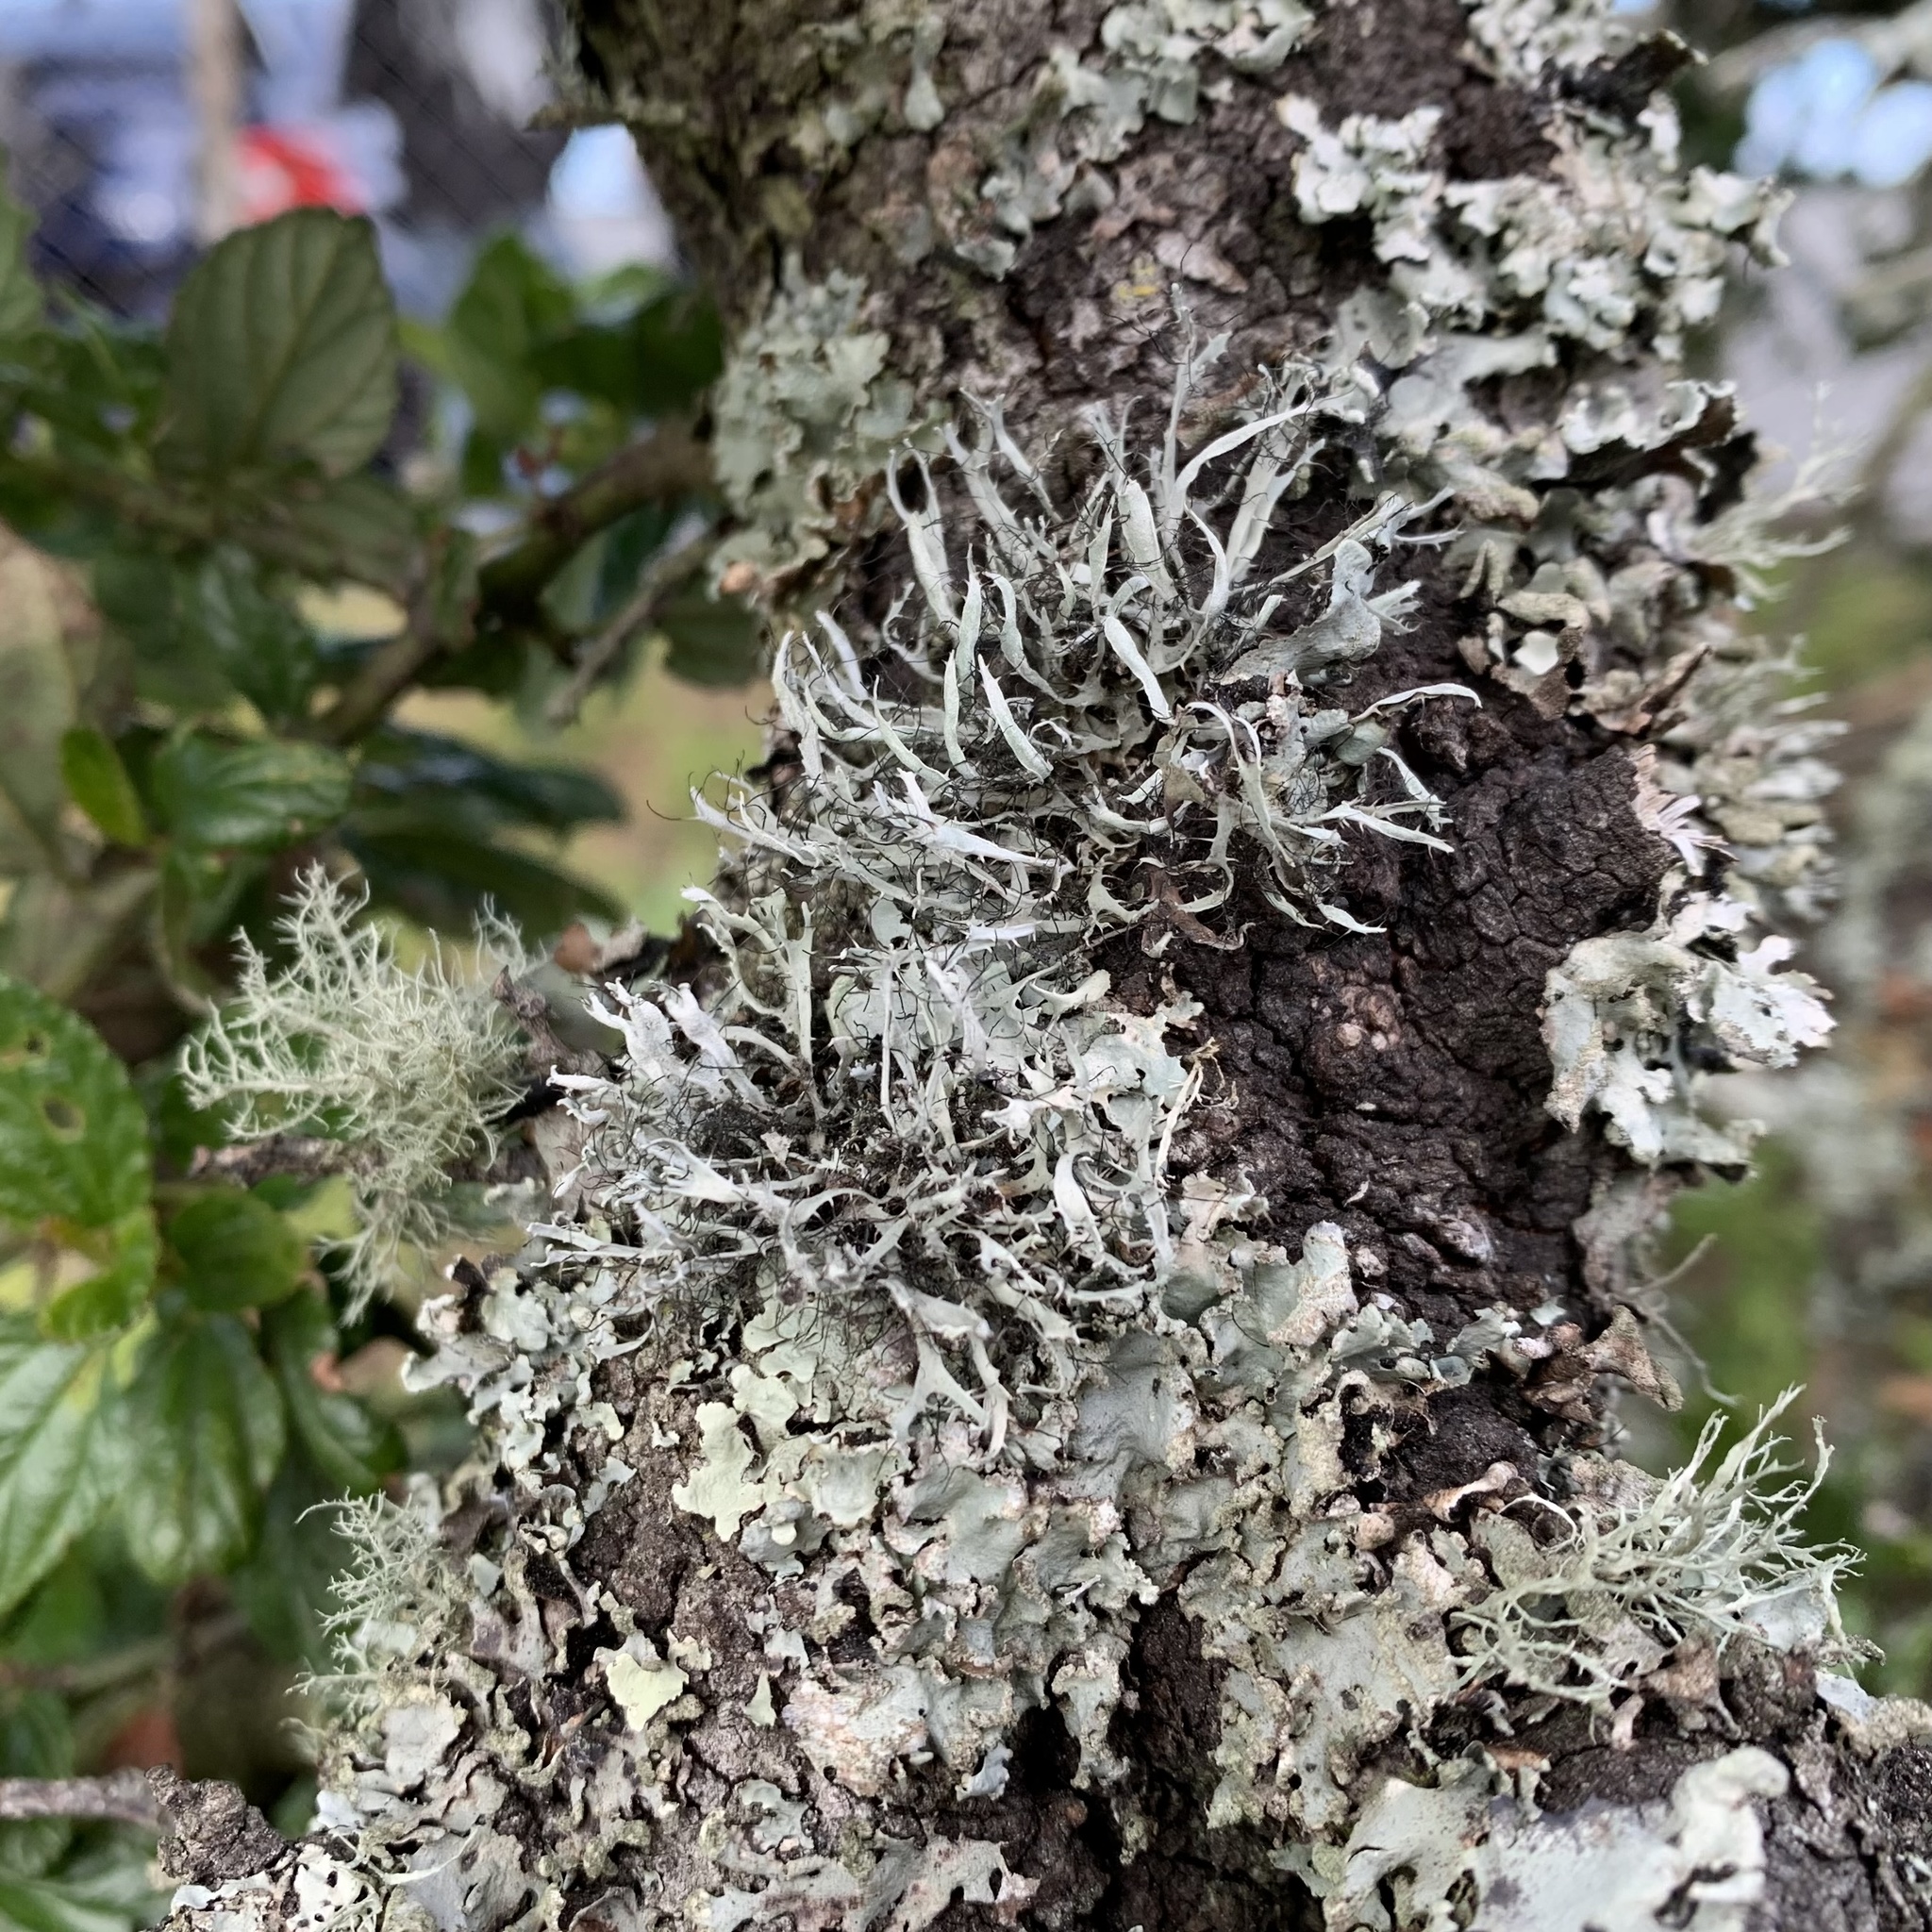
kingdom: Fungi
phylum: Ascomycota
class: Lecanoromycetes
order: Caliciales
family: Physciaceae
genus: Leucodermia
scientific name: Leucodermia leucomelos
